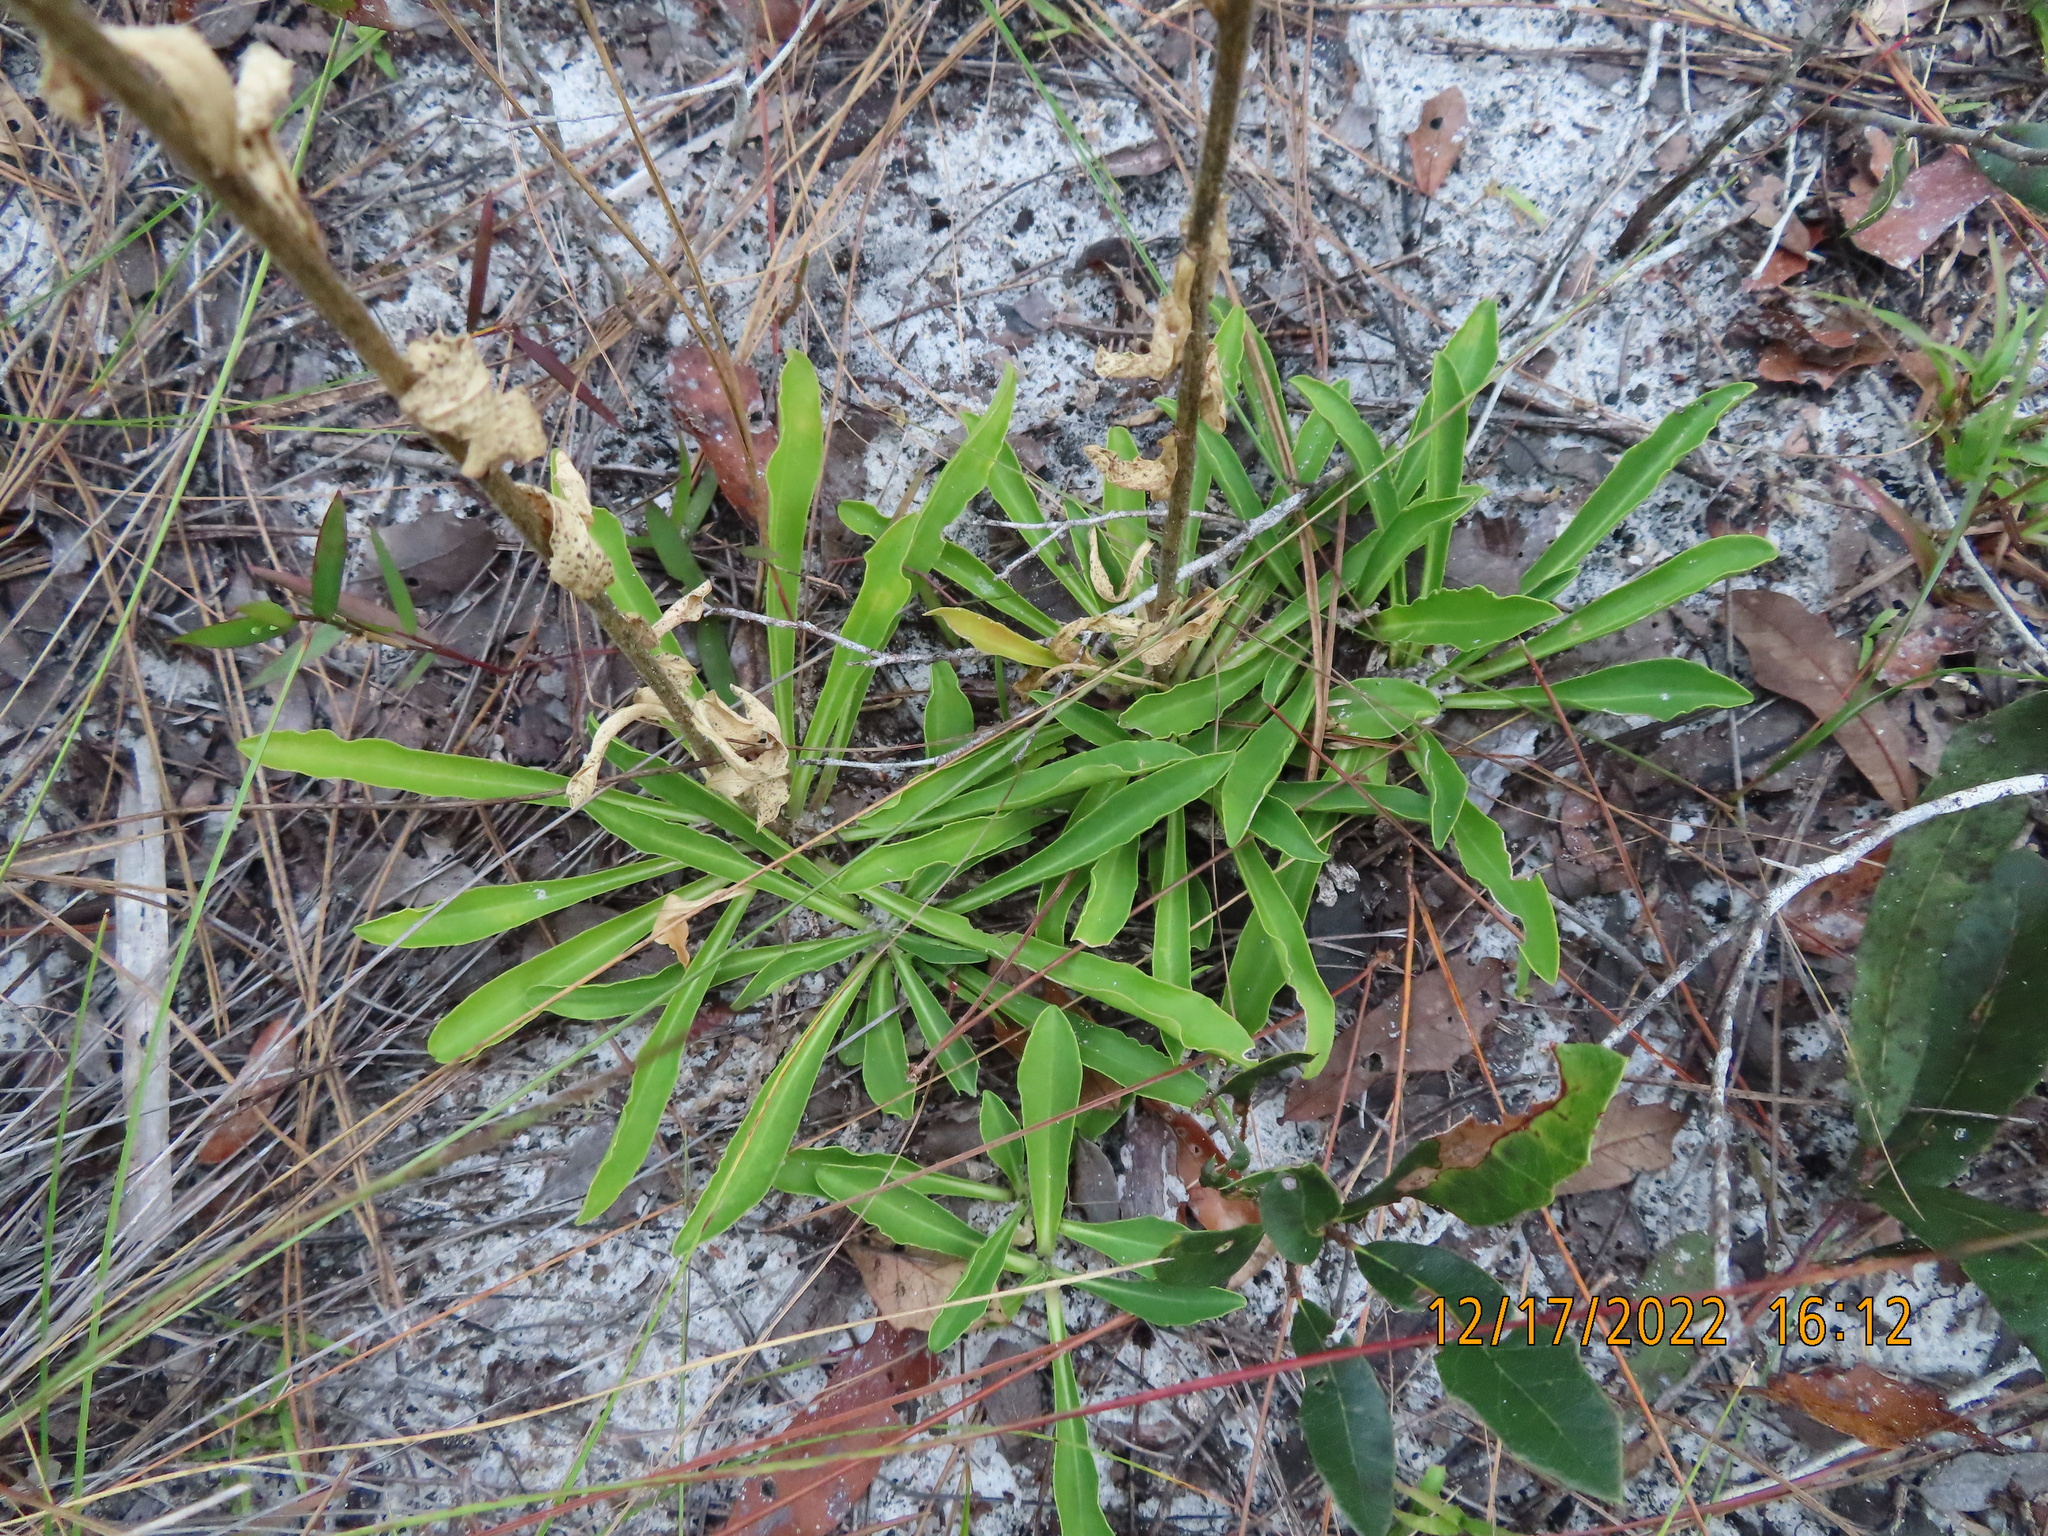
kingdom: Plantae
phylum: Tracheophyta
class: Magnoliopsida
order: Asterales
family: Asteraceae
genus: Carphephorus
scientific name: Carphephorus corymbosus
